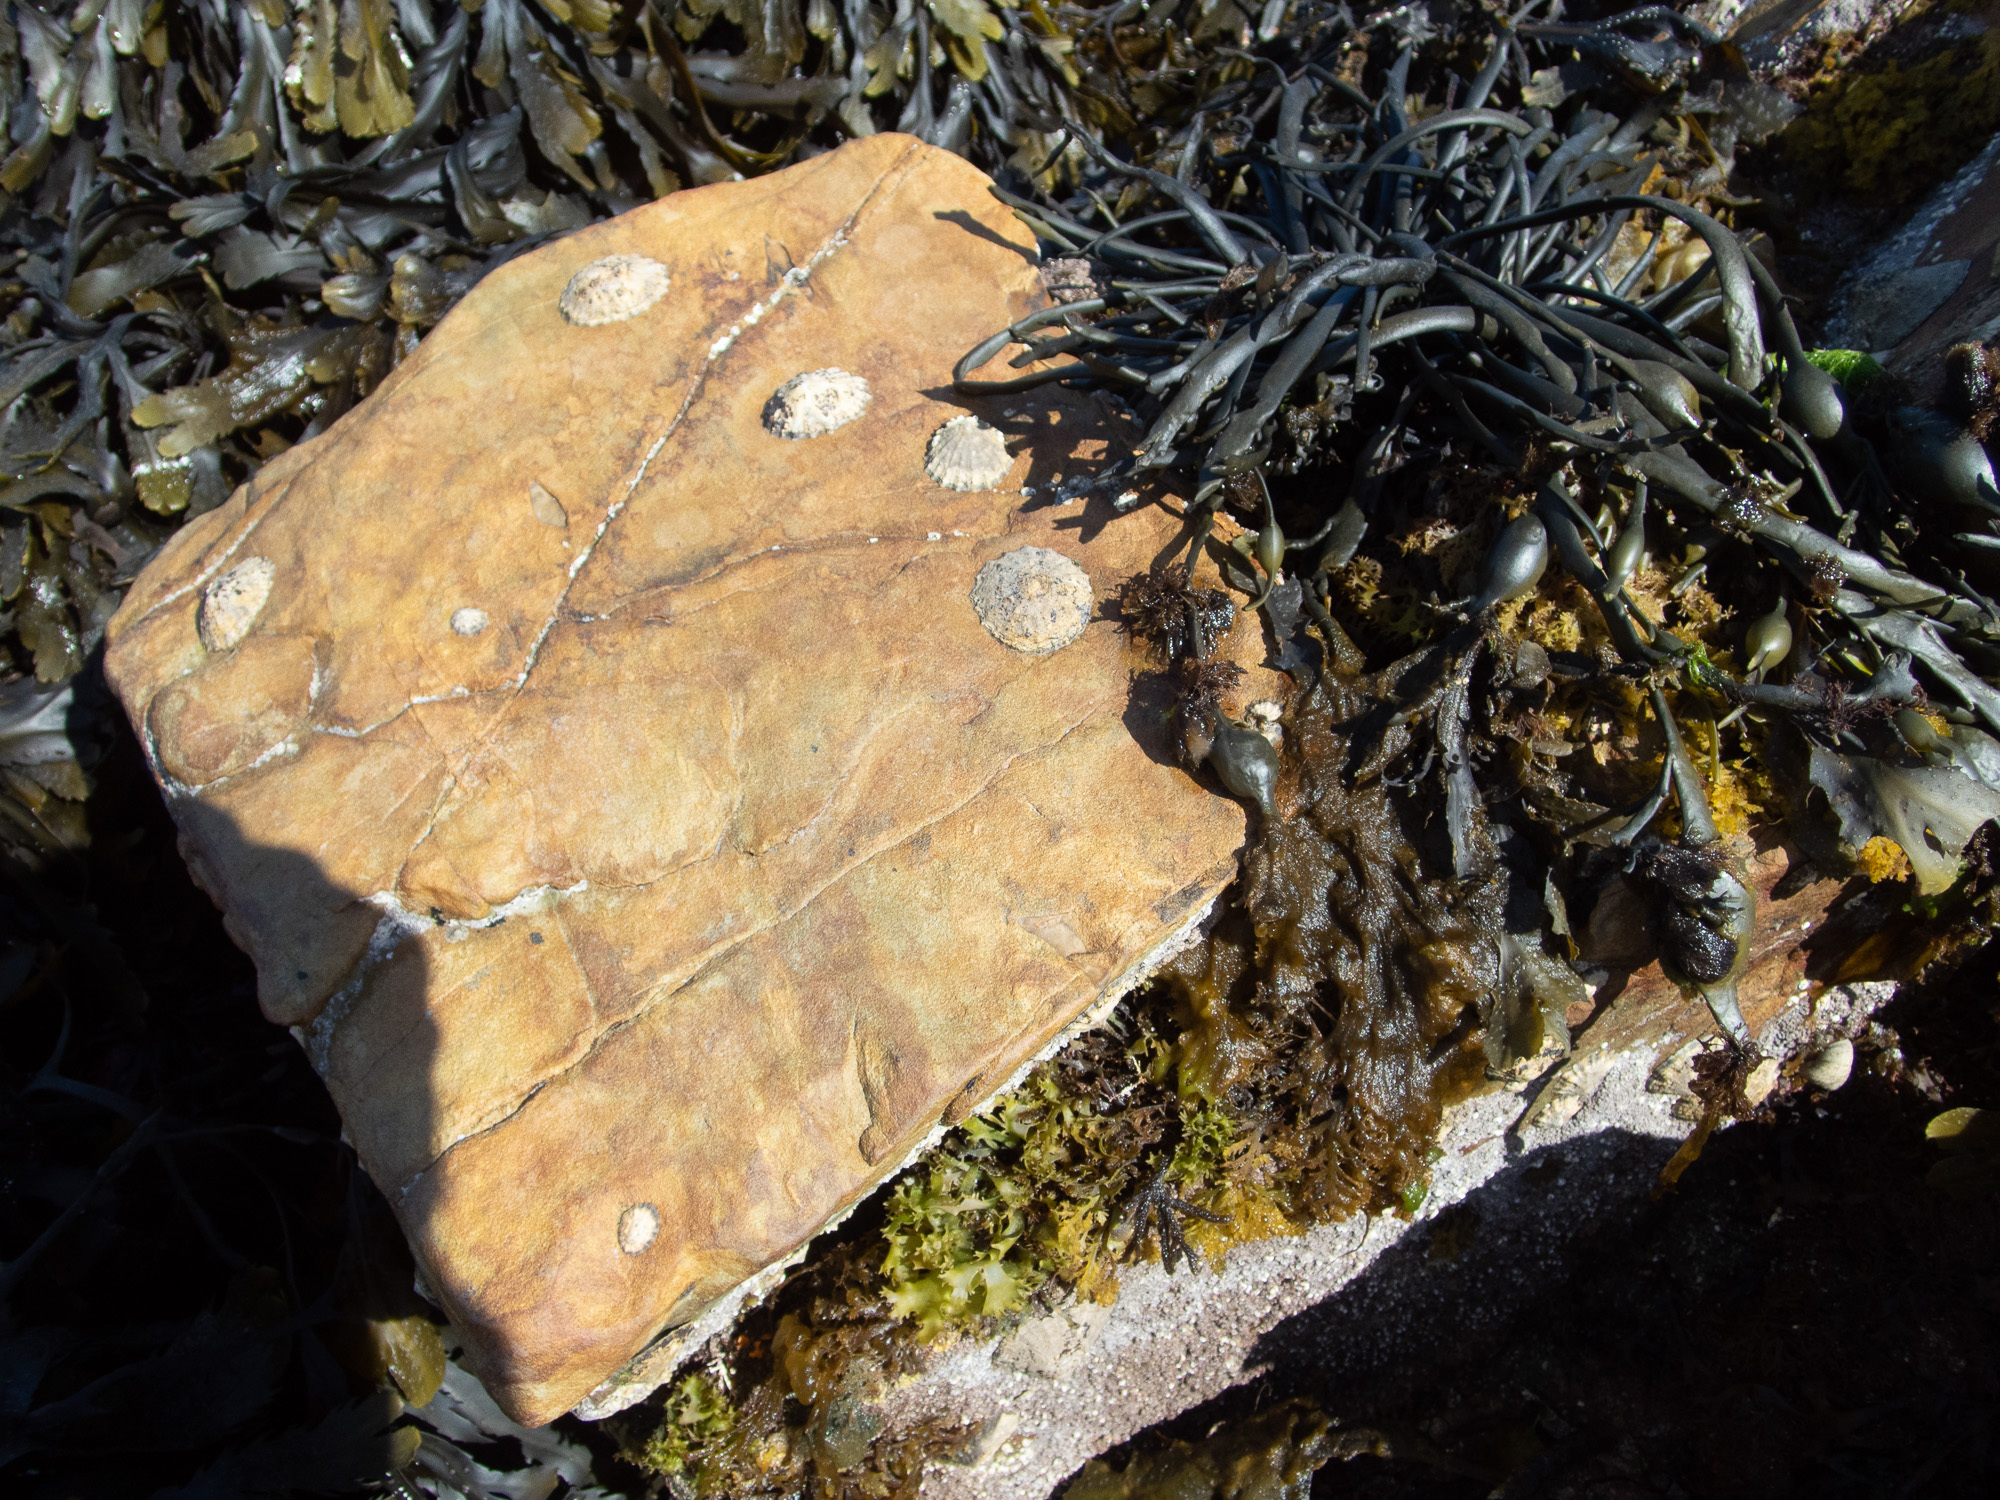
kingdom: Animalia
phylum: Mollusca
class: Gastropoda
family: Patellidae
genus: Patella
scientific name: Patella vulgata
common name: Common limpet
